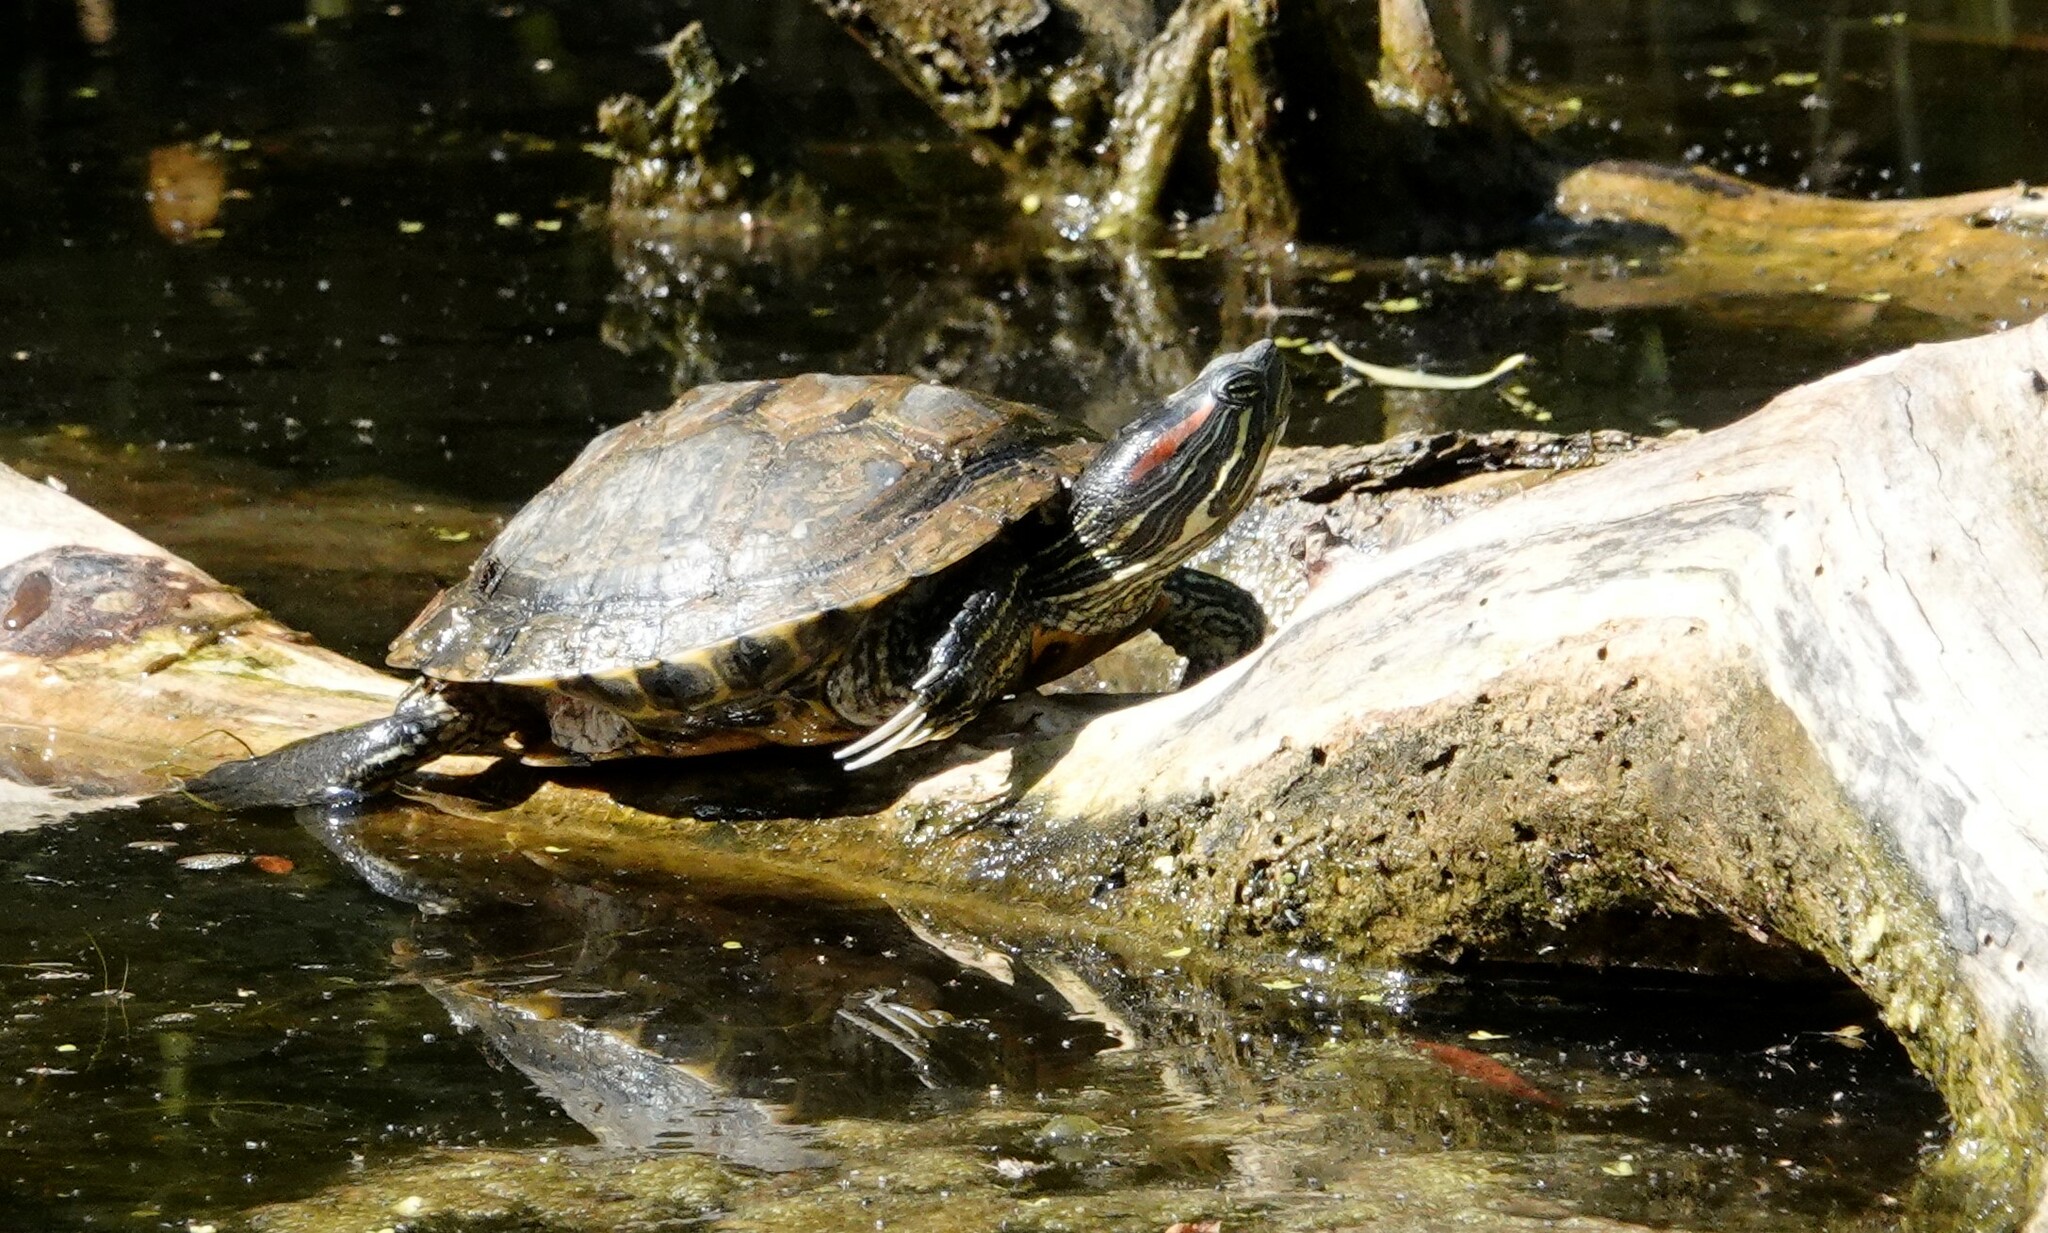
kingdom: Animalia
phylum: Chordata
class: Testudines
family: Emydidae
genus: Trachemys
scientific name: Trachemys scripta
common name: Slider
